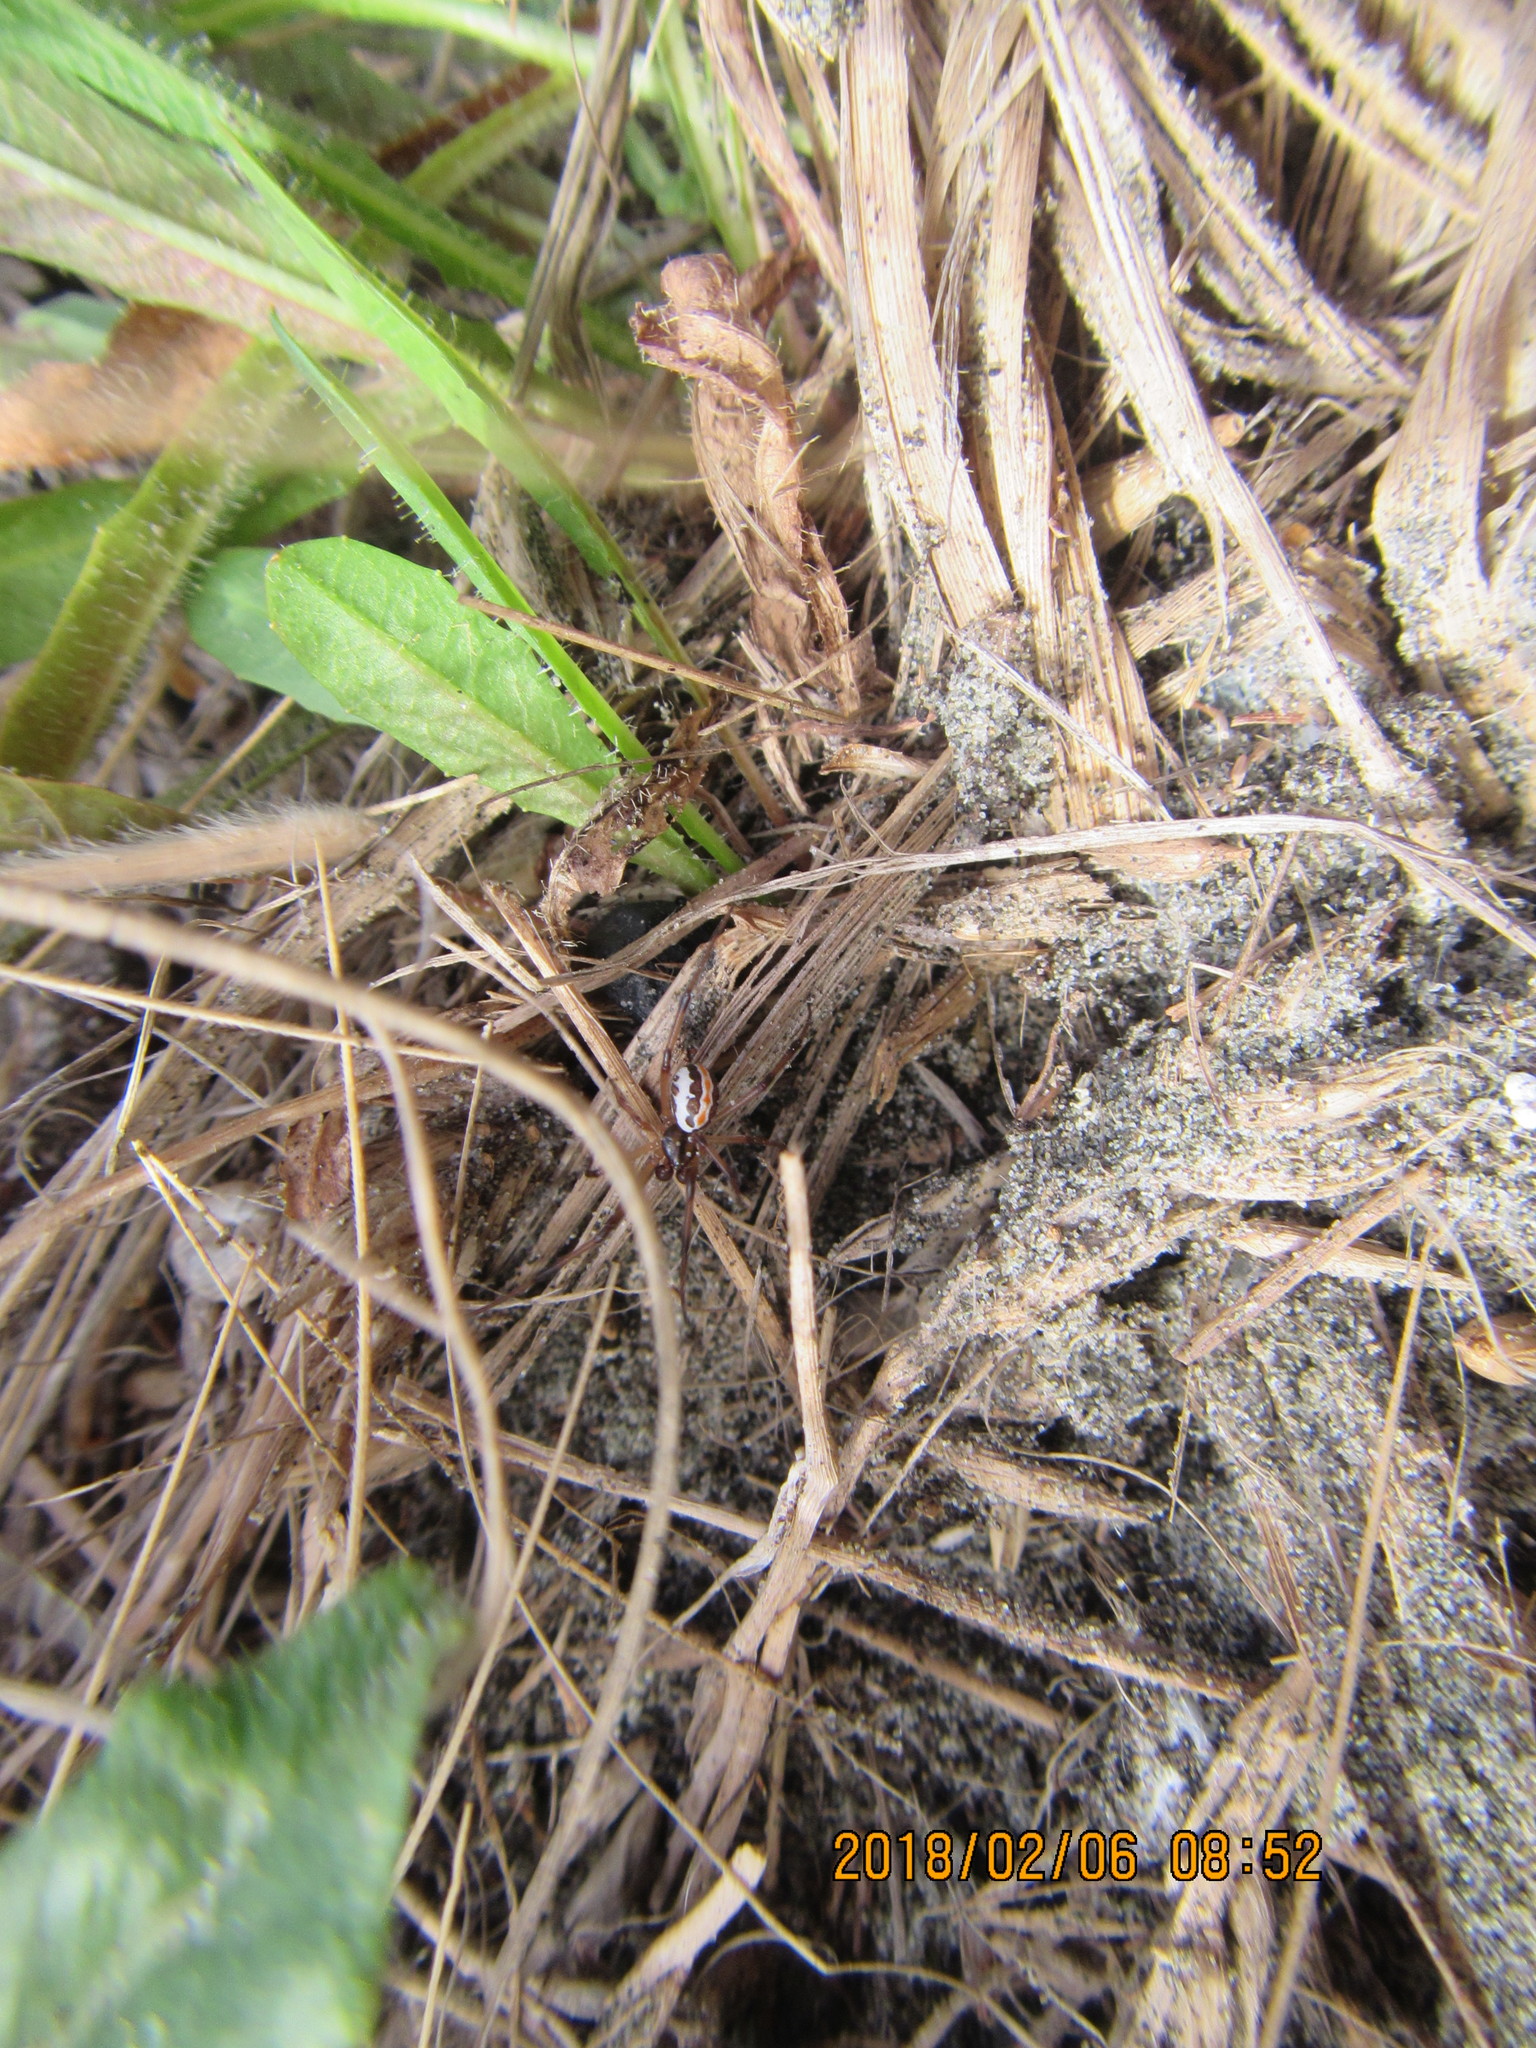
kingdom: Animalia
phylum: Arthropoda
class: Arachnida
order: Araneae
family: Theridiidae
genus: Latrodectus
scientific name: Latrodectus katipo
